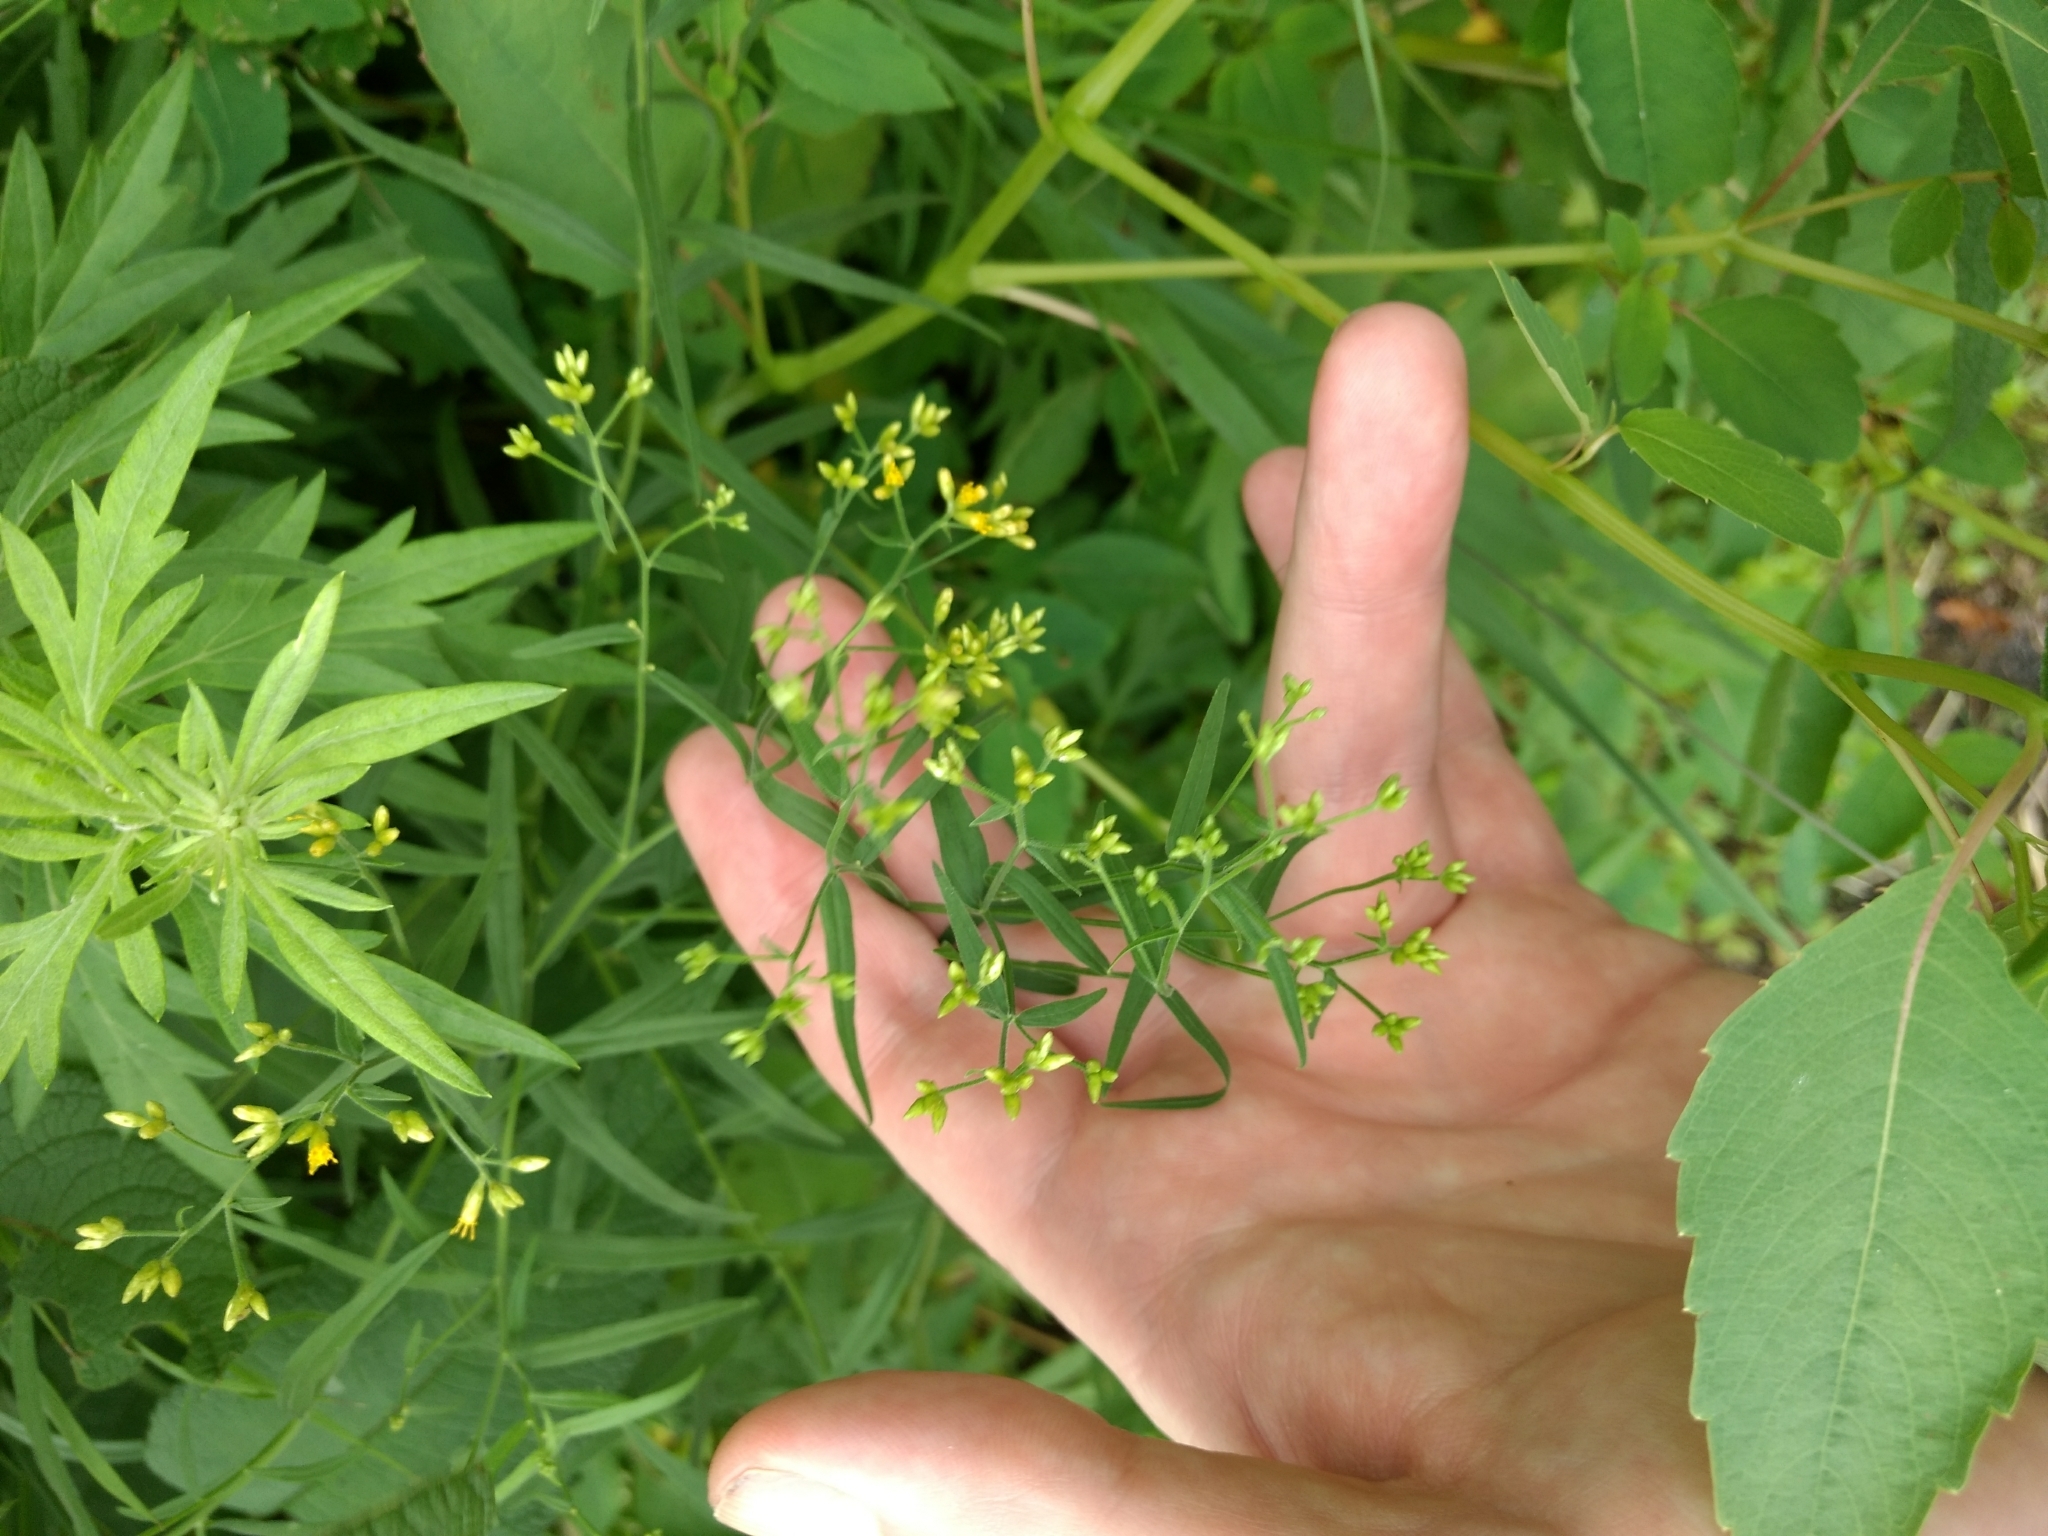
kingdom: Plantae
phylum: Tracheophyta
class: Magnoliopsida
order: Asterales
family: Asteraceae
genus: Euthamia
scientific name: Euthamia graminifolia
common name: Common goldentop
